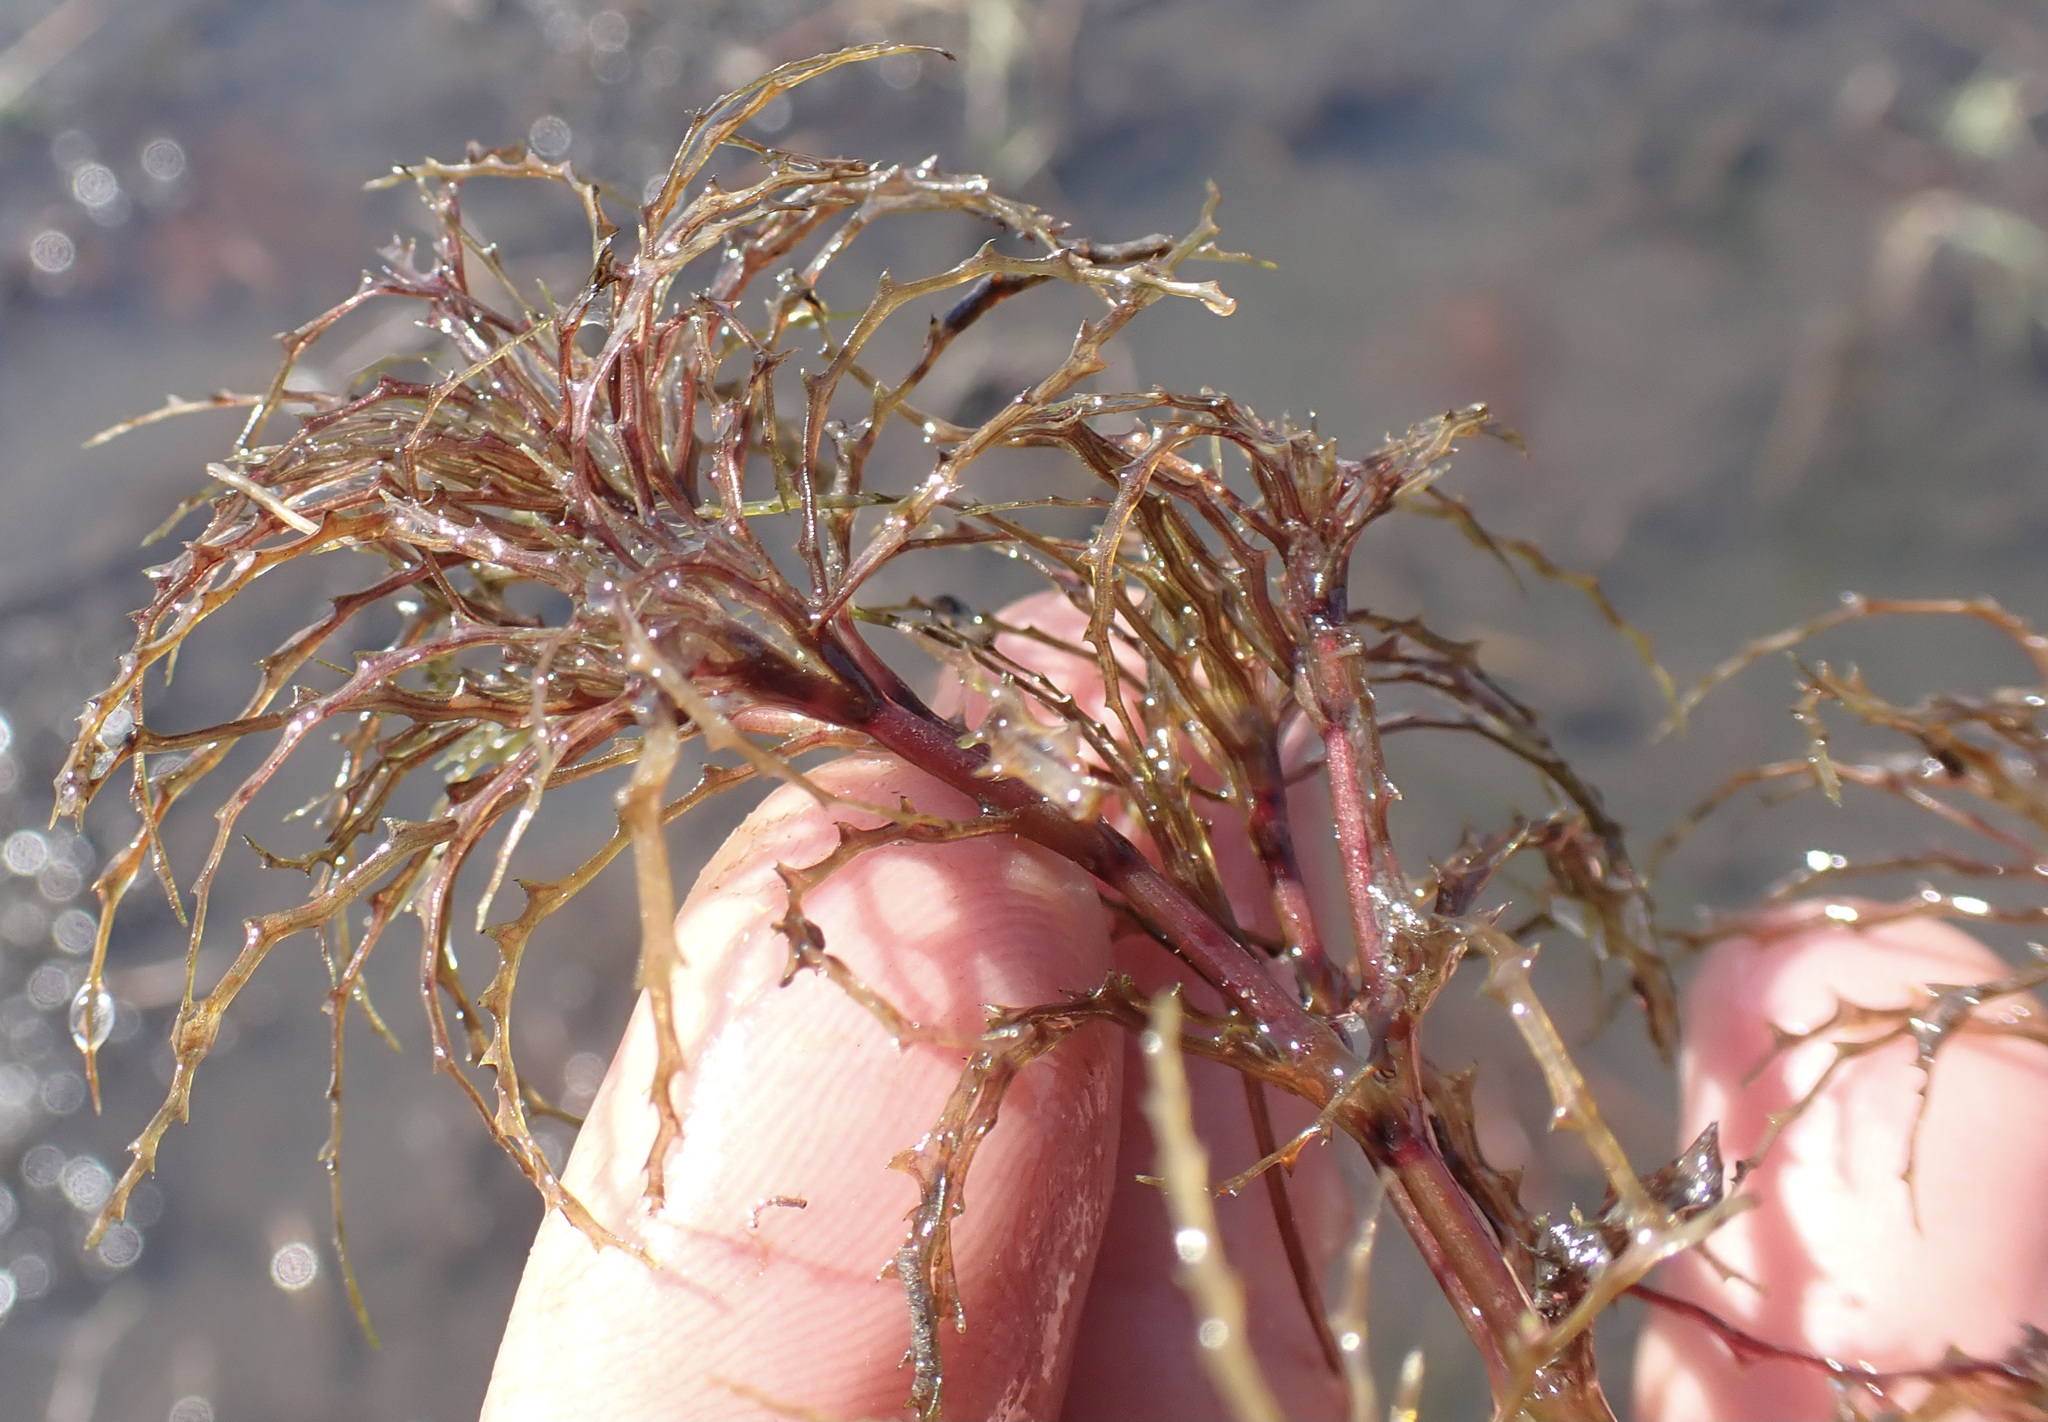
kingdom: Plantae
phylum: Tracheophyta
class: Liliopsida
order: Alismatales
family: Hydrocharitaceae
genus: Najas
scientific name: Najas horrida
